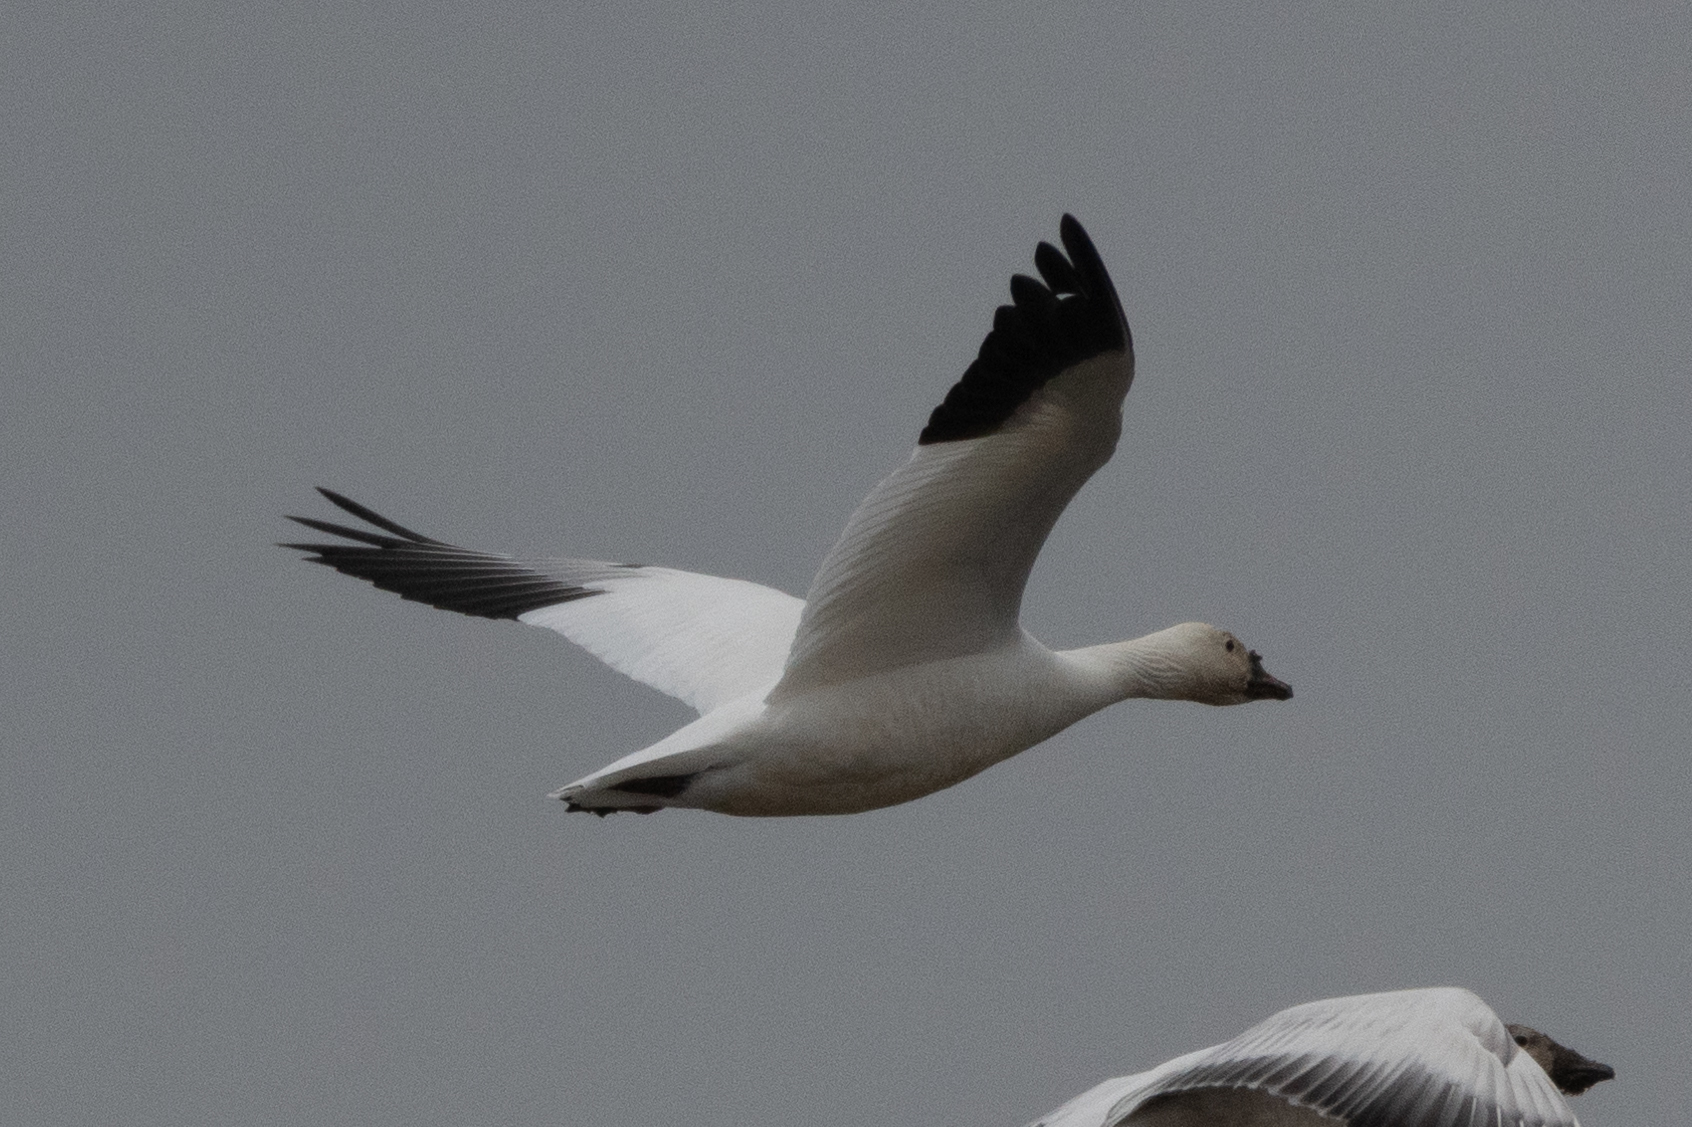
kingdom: Animalia
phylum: Chordata
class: Aves
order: Anseriformes
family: Anatidae
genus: Anser
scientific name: Anser caerulescens
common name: Snow goose
